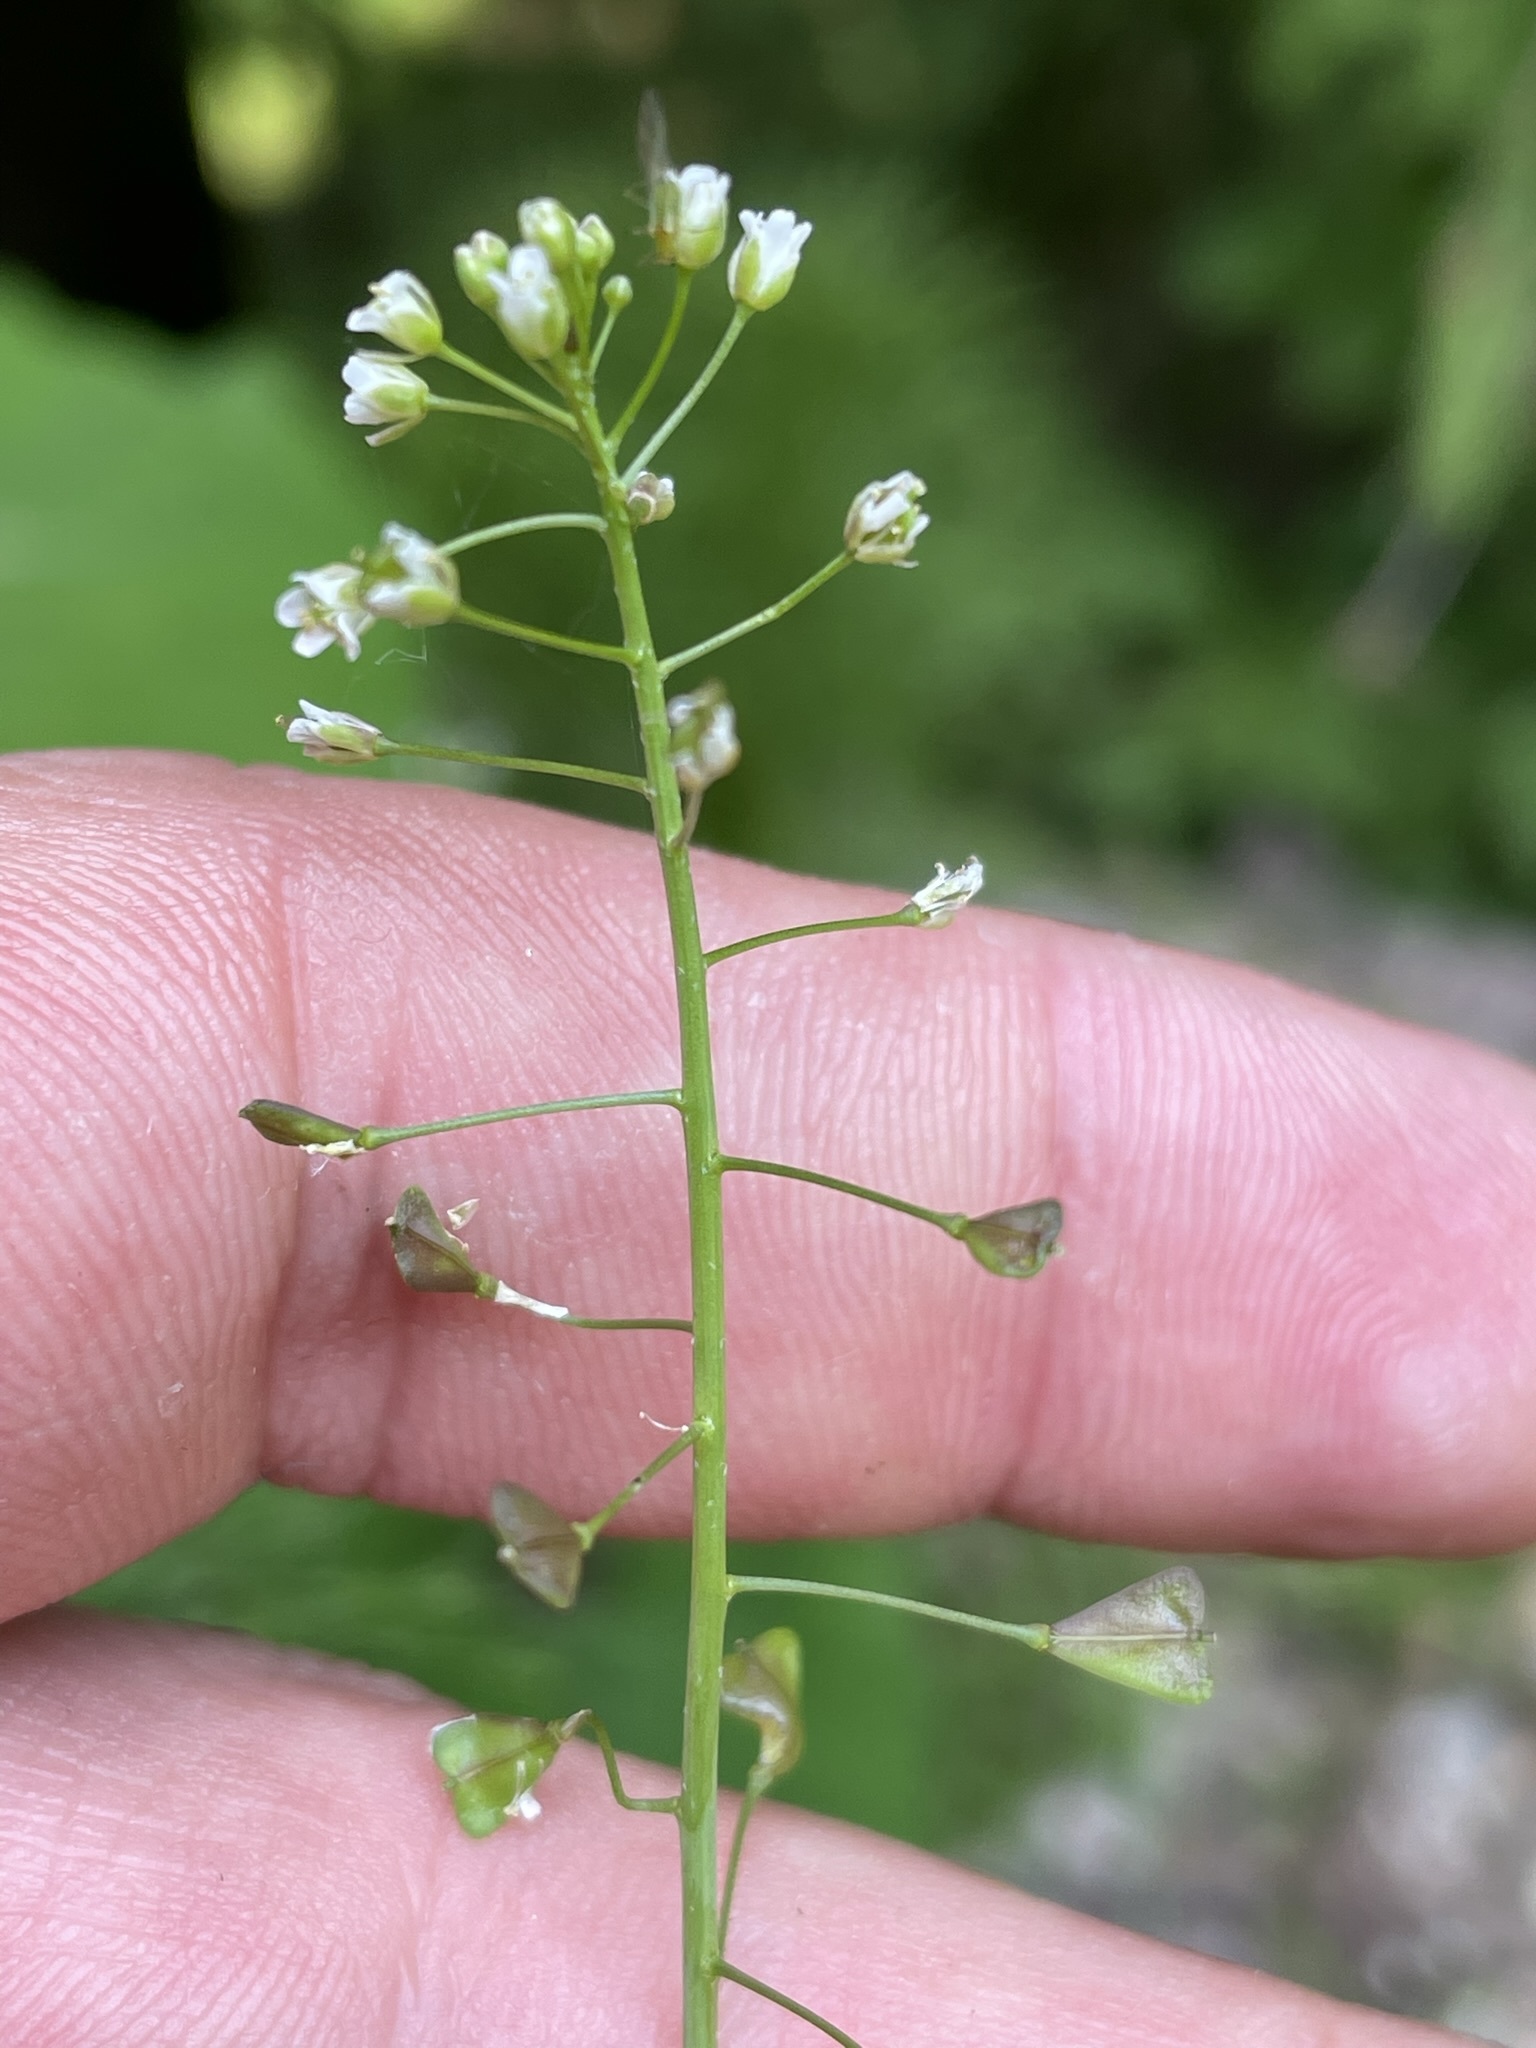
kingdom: Plantae
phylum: Tracheophyta
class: Magnoliopsida
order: Brassicales
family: Brassicaceae
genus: Capsella
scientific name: Capsella bursa-pastoris
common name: Shepherd's purse
